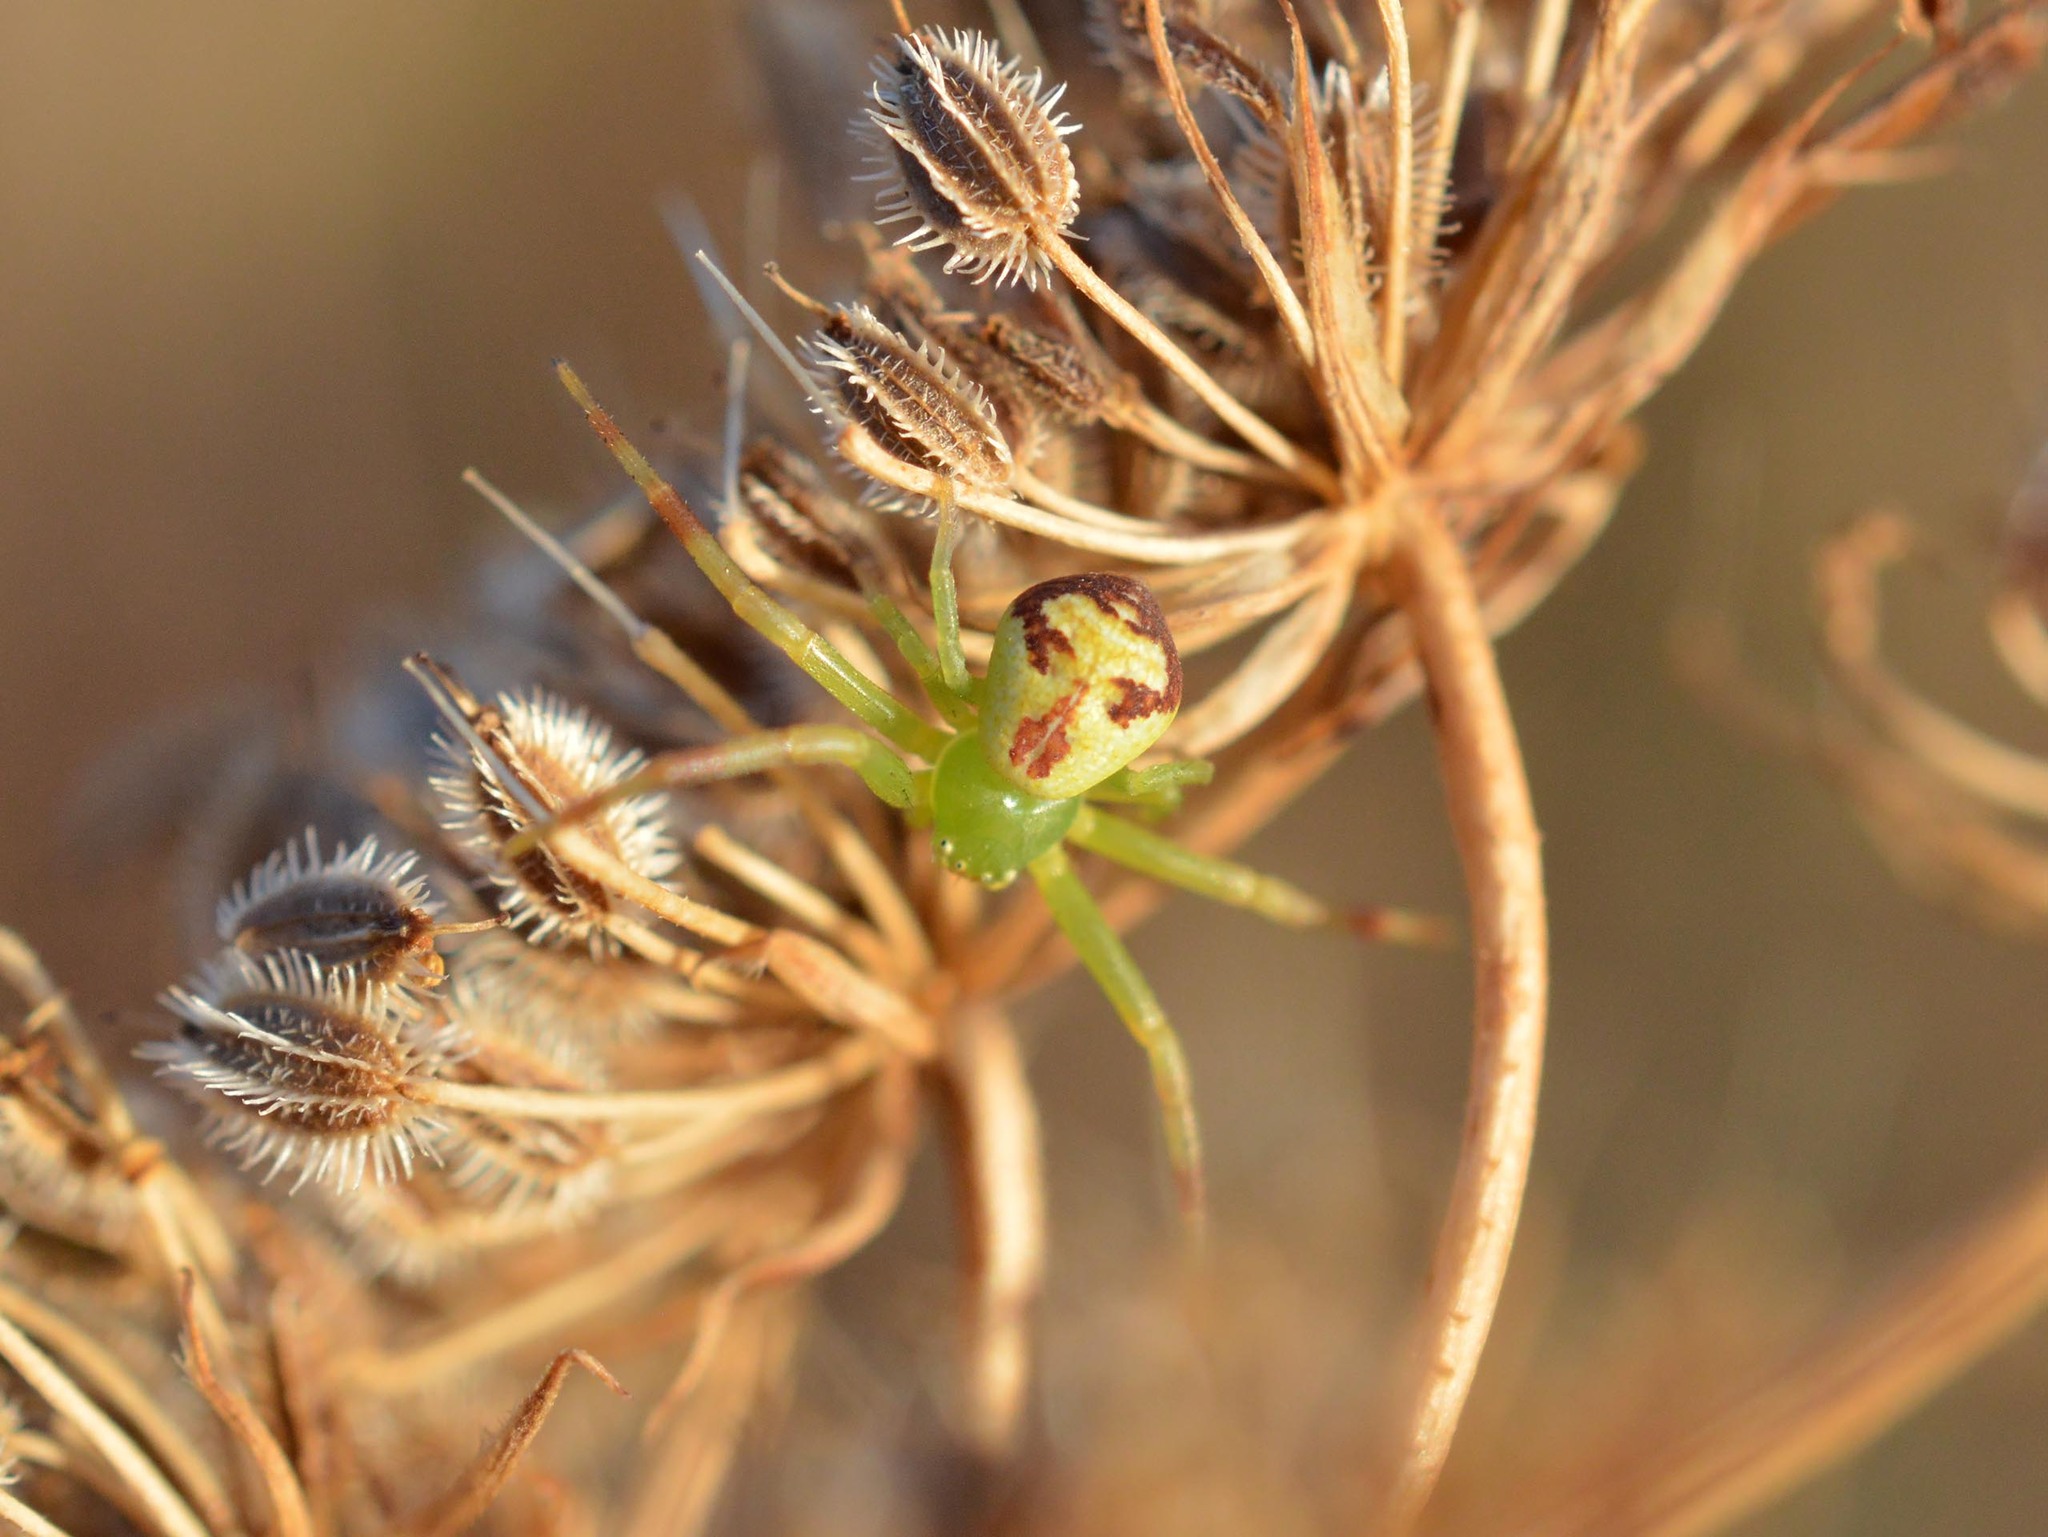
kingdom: Animalia
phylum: Arthropoda
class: Arachnida
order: Araneae
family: Thomisidae
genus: Ebrechtella
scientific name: Ebrechtella tricuspidata
